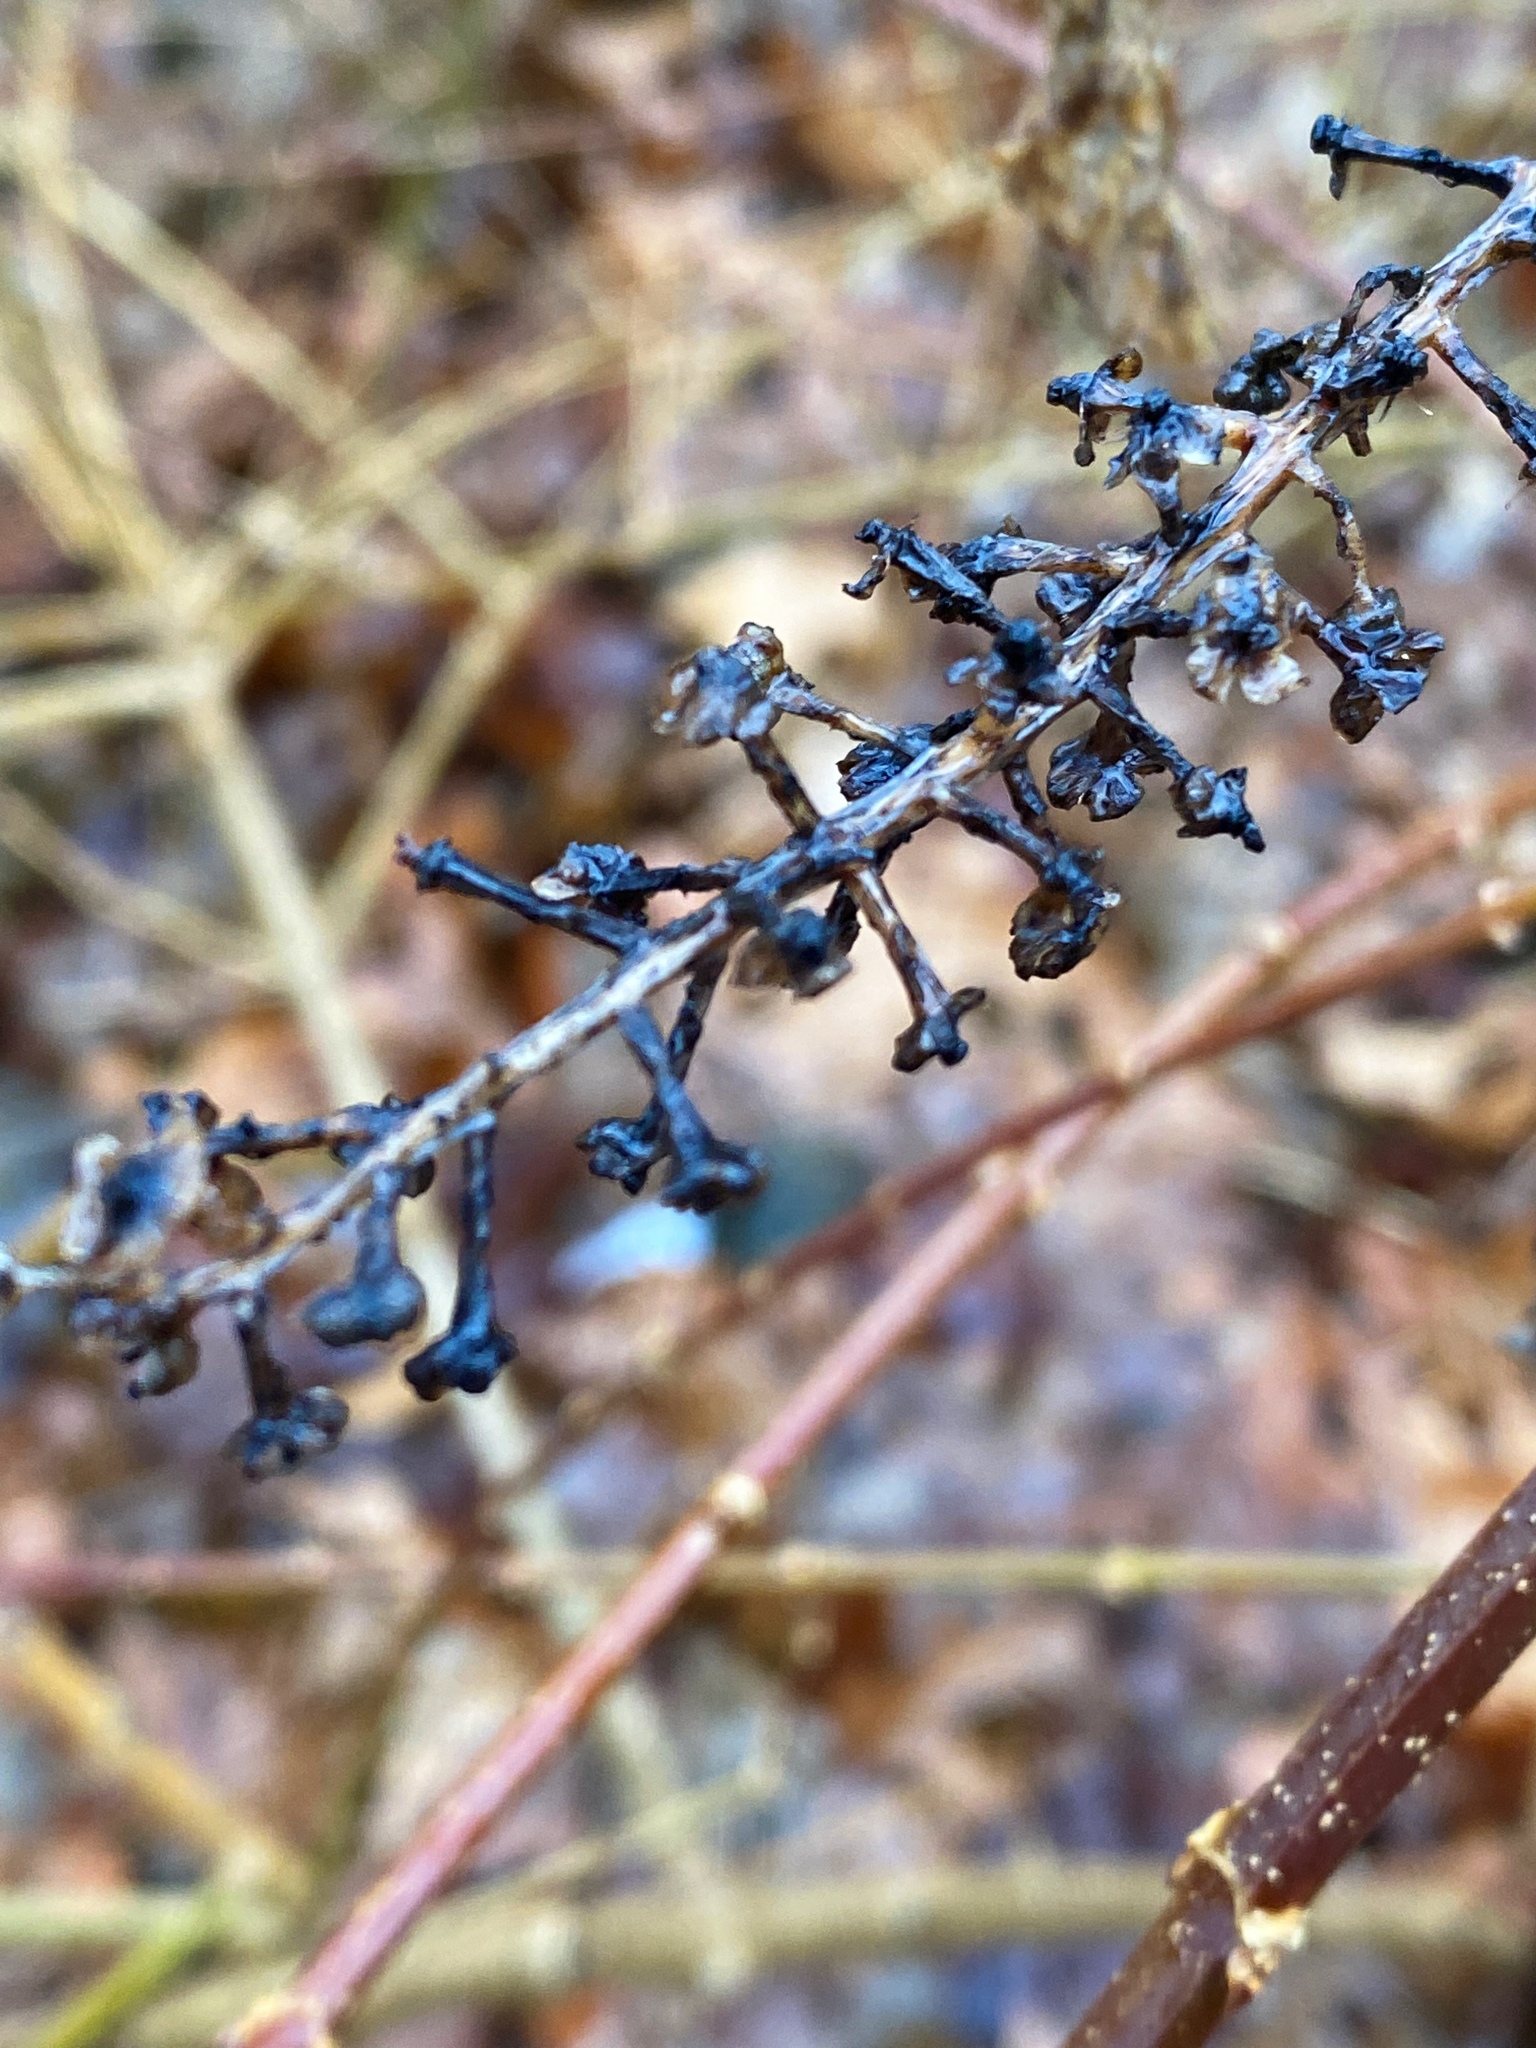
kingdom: Plantae
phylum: Tracheophyta
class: Magnoliopsida
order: Caryophyllales
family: Phytolaccaceae
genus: Phytolacca
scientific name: Phytolacca americana
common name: American pokeweed
